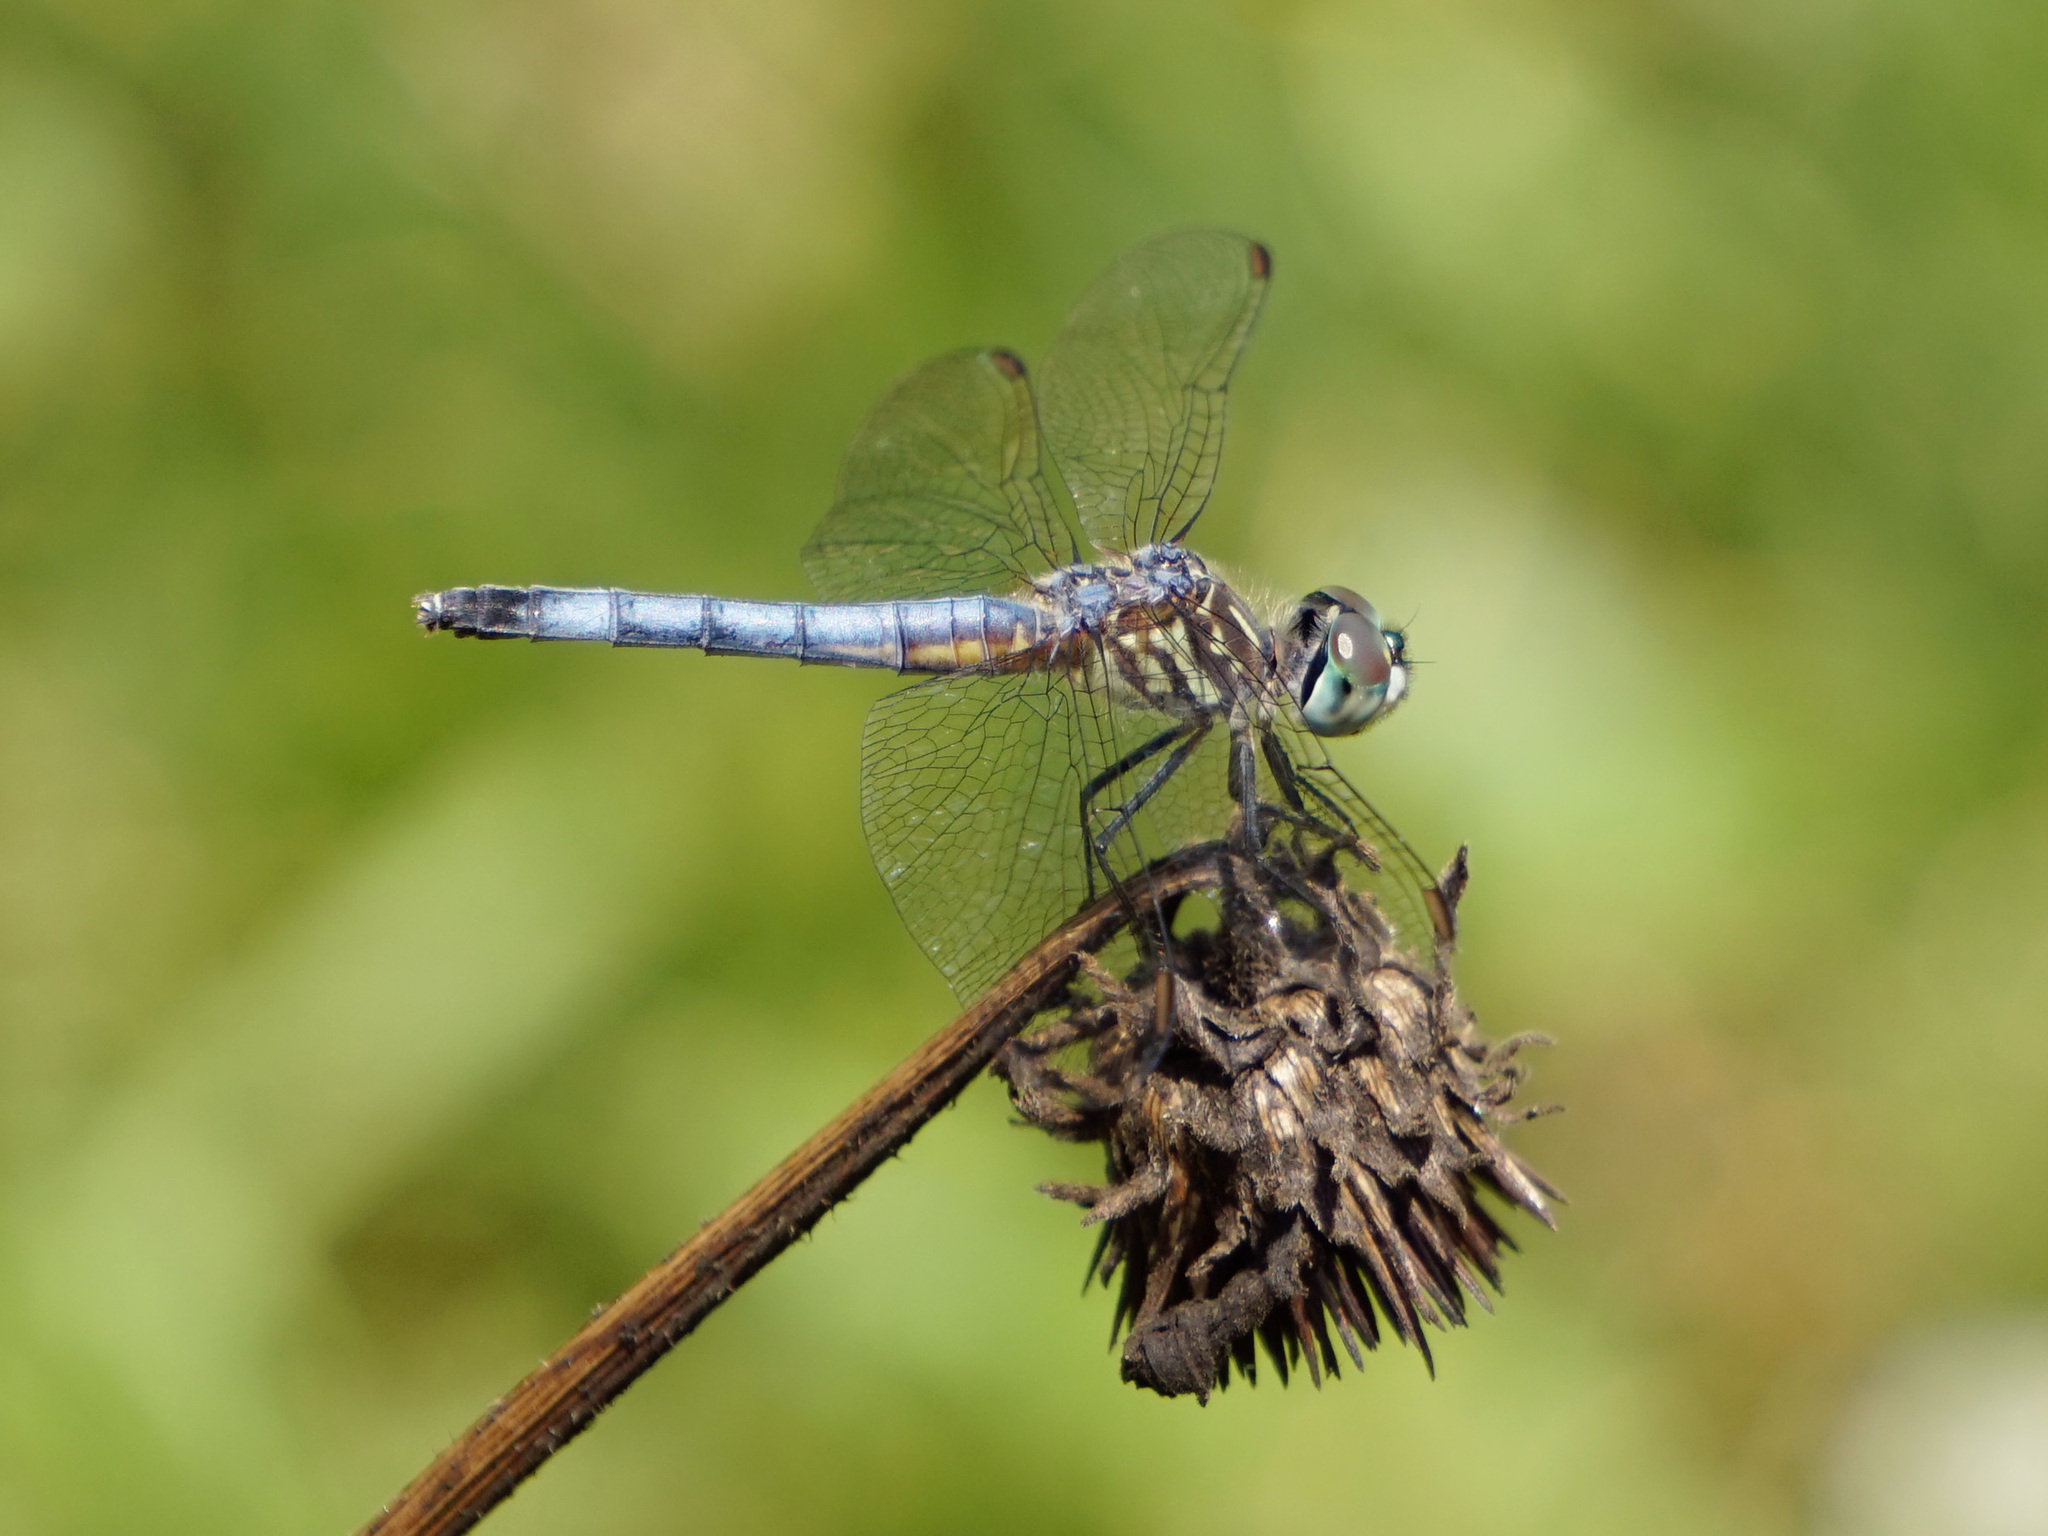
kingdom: Animalia
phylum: Arthropoda
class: Insecta
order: Odonata
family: Libellulidae
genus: Pachydiplax
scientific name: Pachydiplax longipennis
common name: Blue dasher
